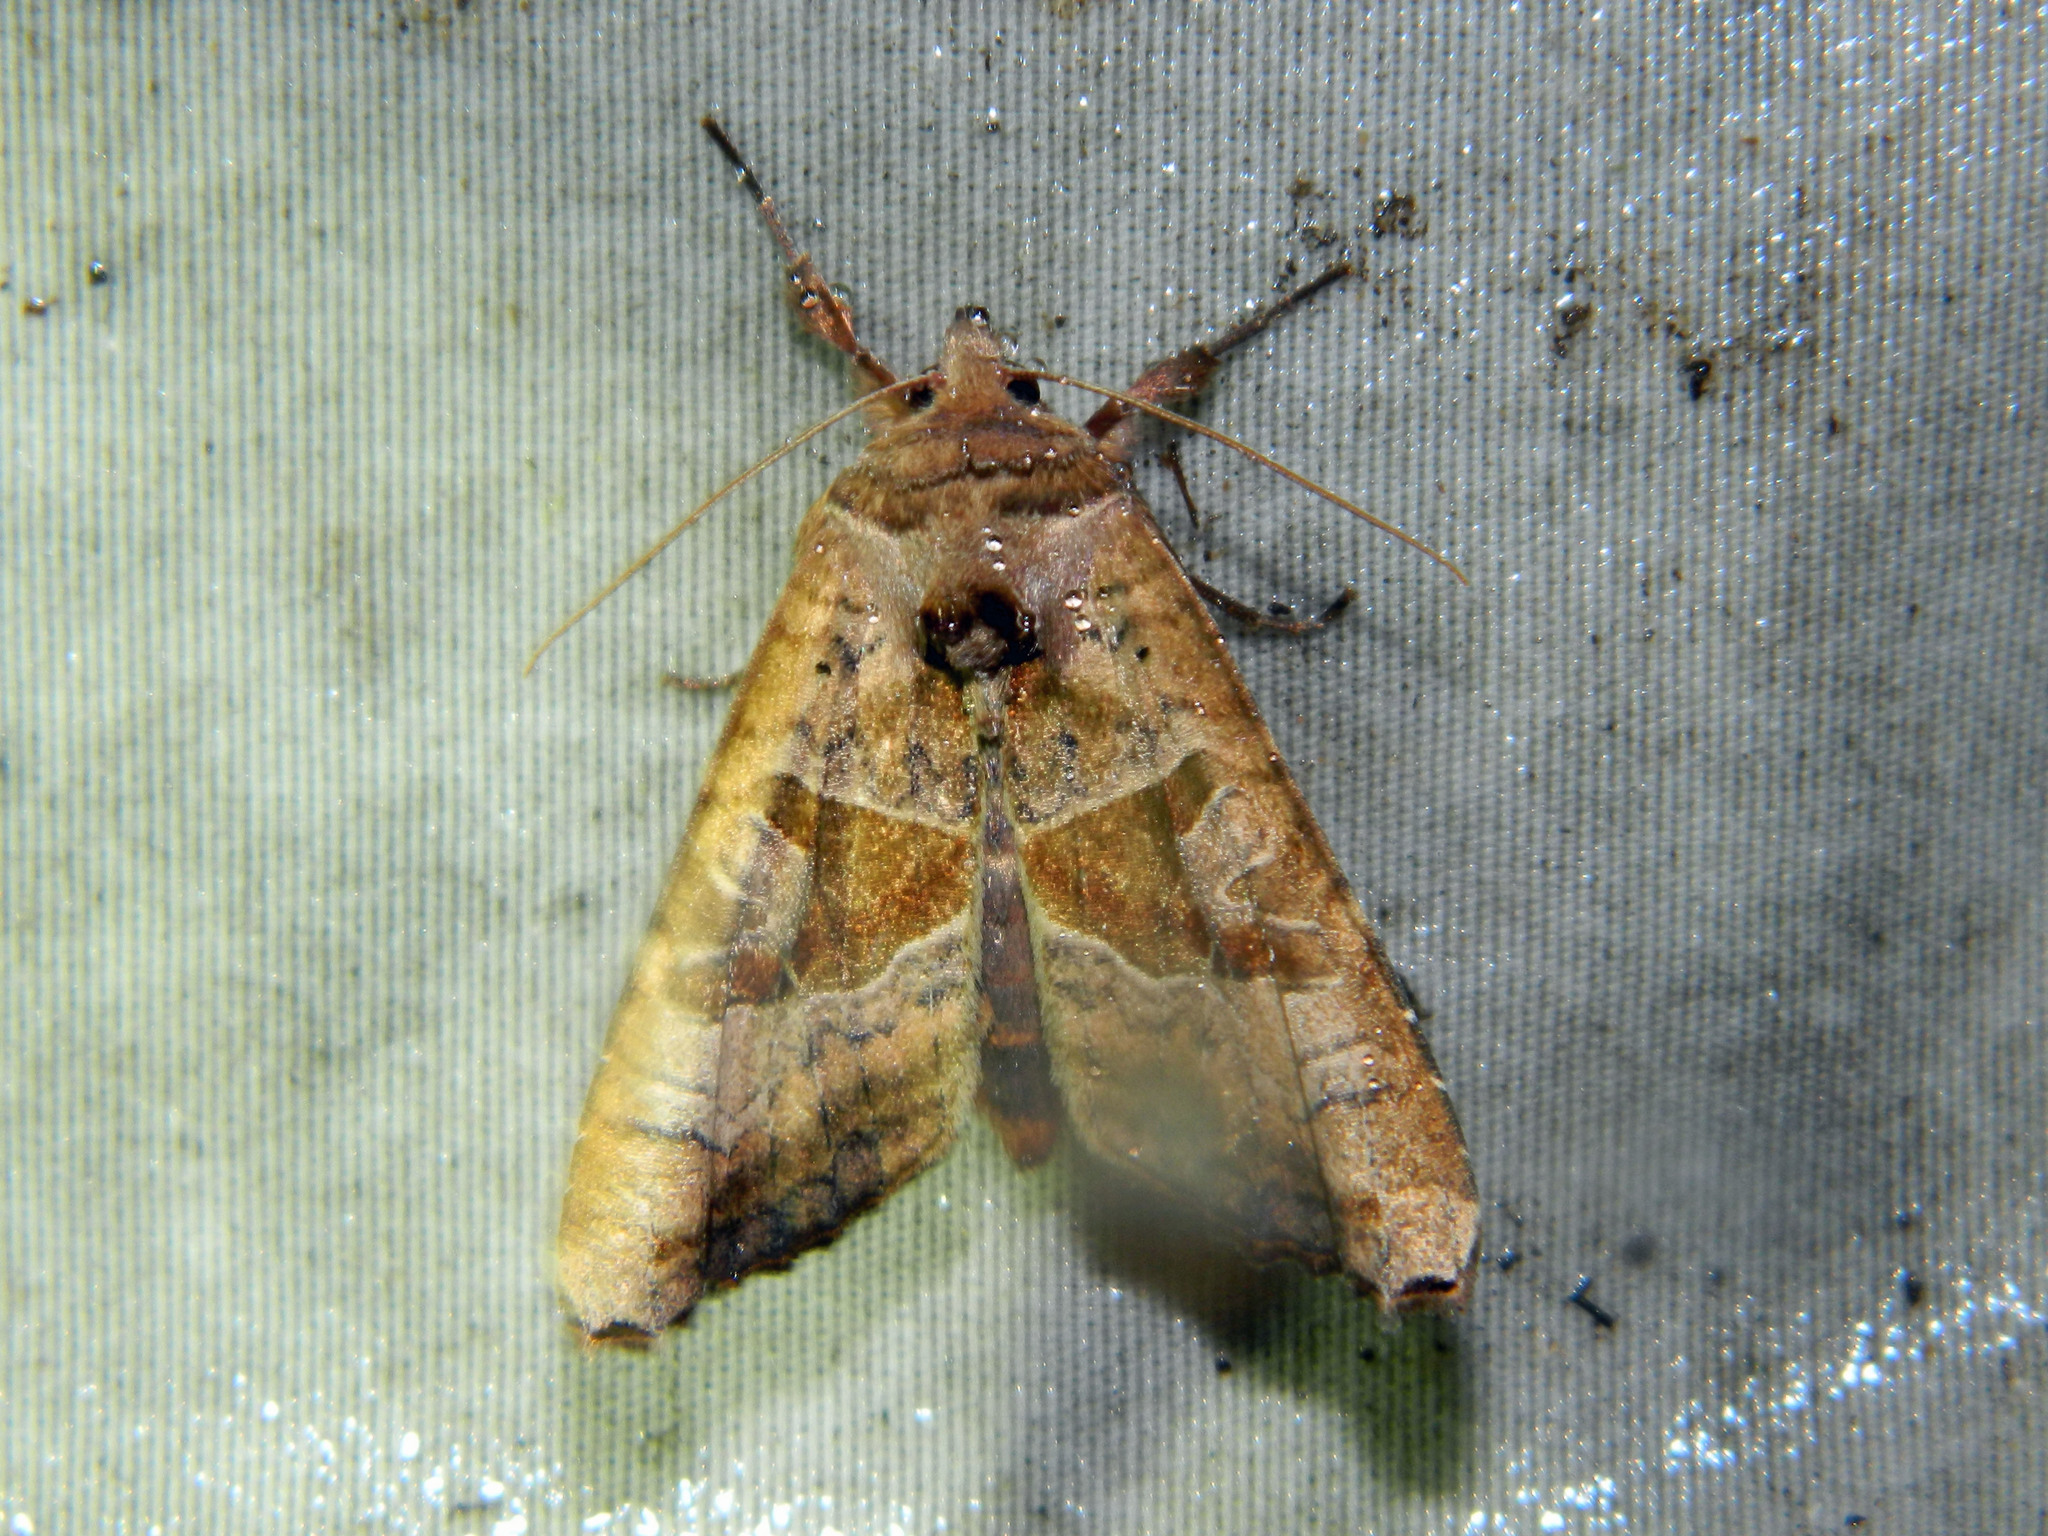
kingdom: Animalia
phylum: Arthropoda
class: Insecta
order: Lepidoptera
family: Noctuidae
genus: Phlogophora
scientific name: Phlogophora periculosa
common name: Brown angle shades
